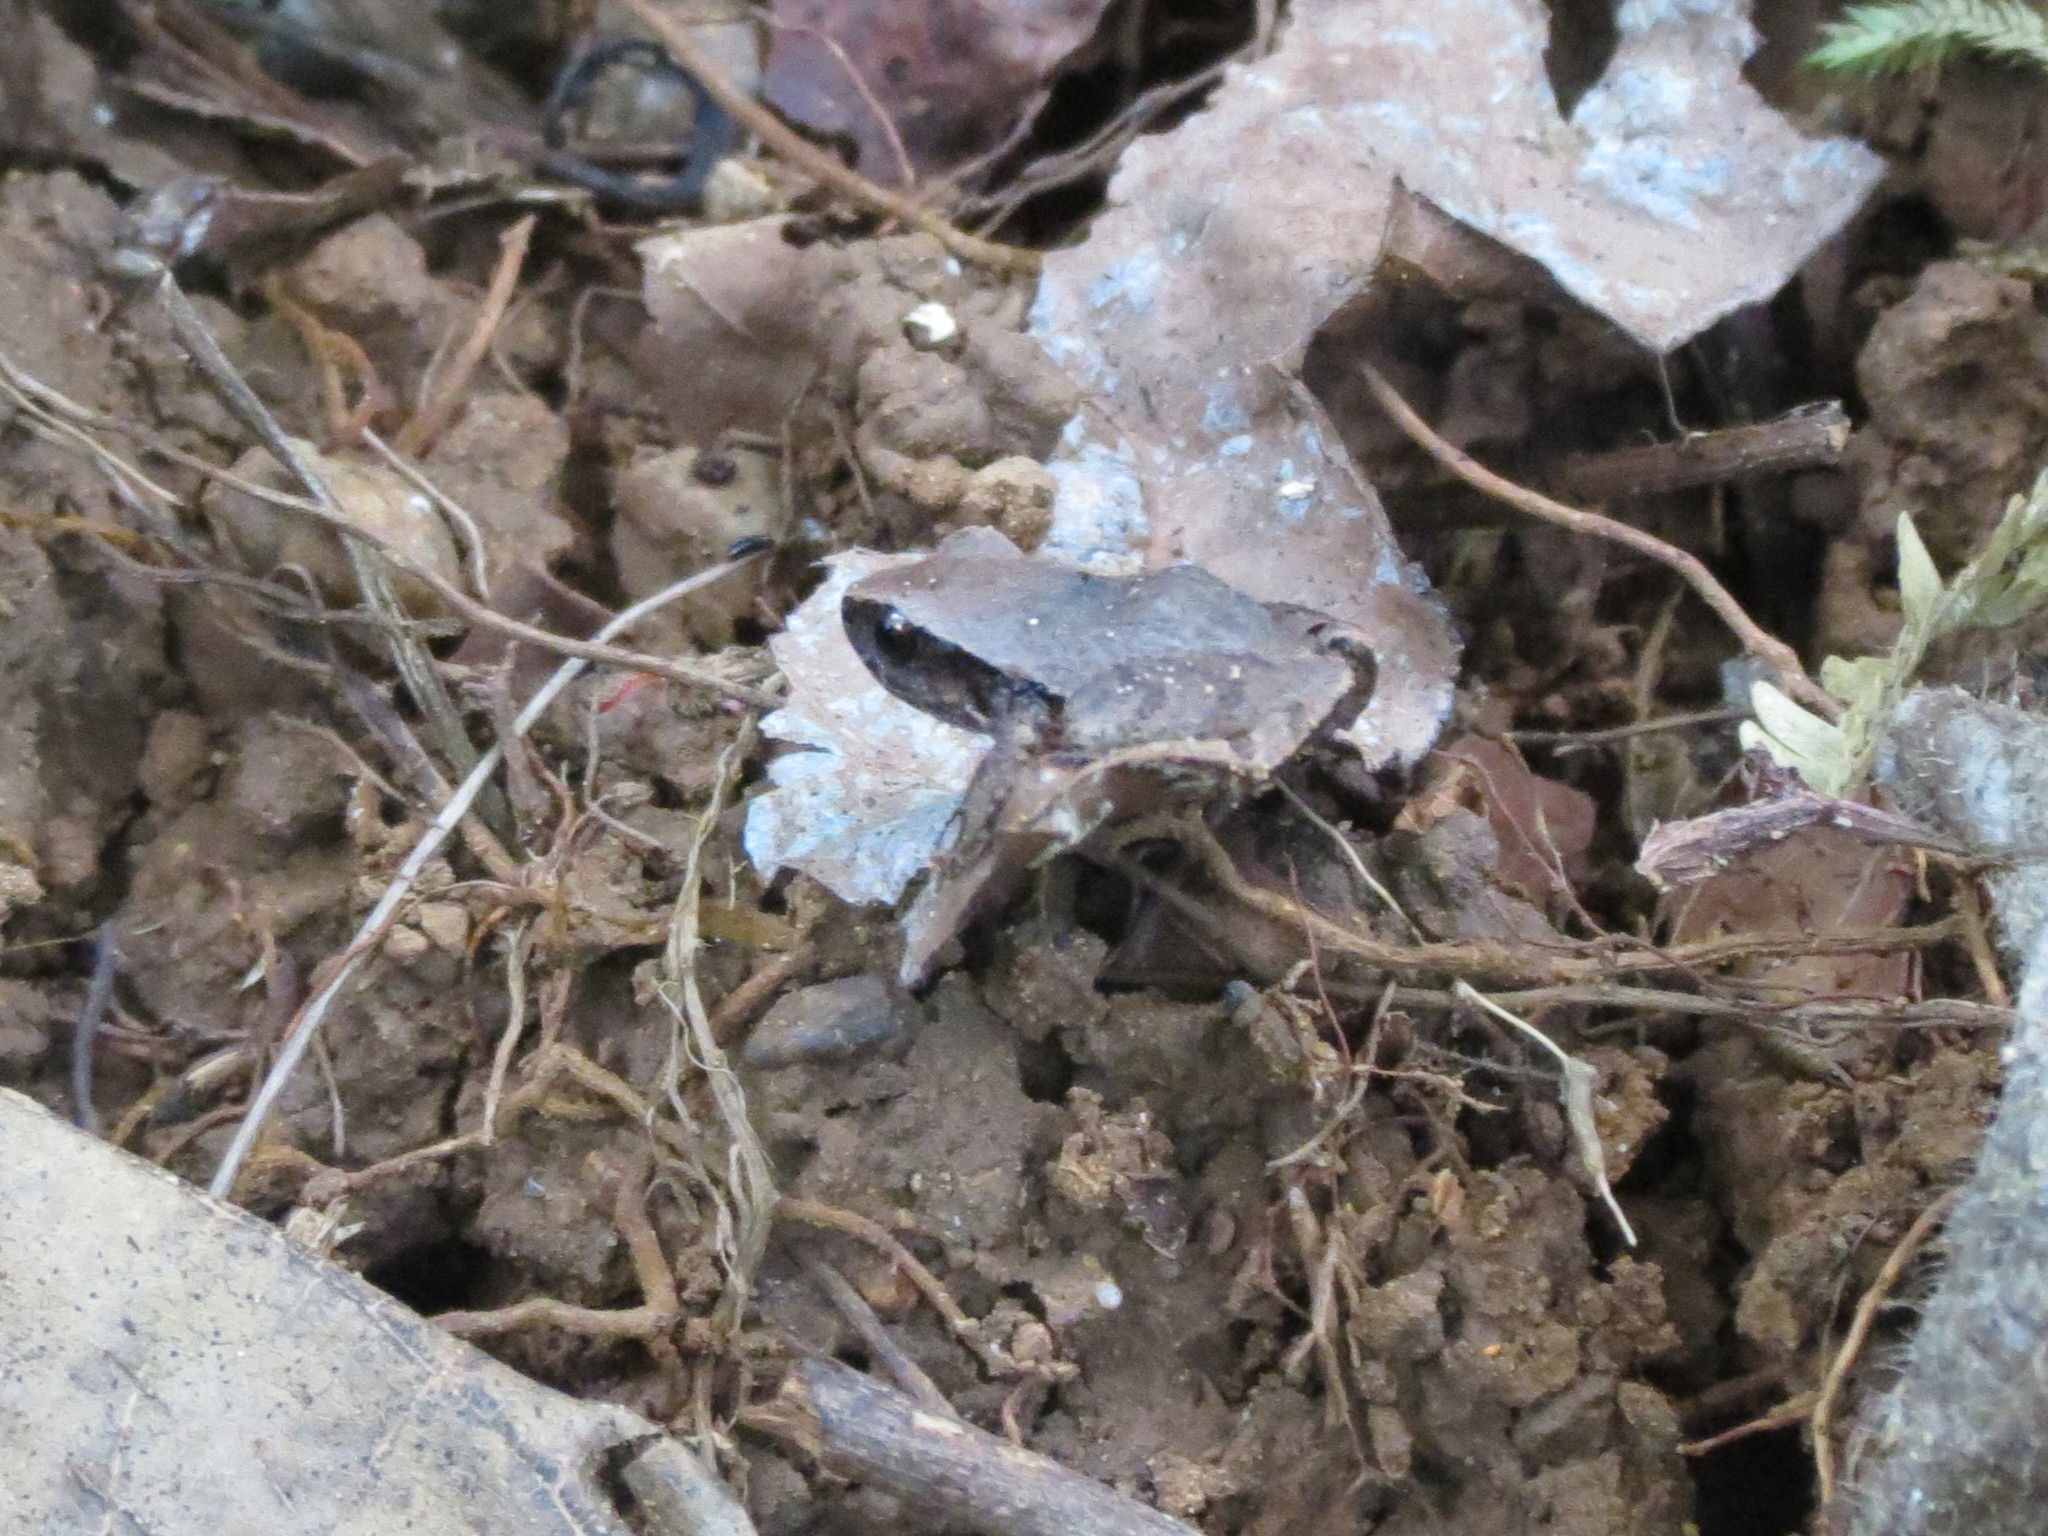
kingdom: Animalia
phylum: Chordata
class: Amphibia
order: Anura
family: Craugastoridae
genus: Craugastor
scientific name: Craugastor stejnegerianus
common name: Stejneger's robber frog
